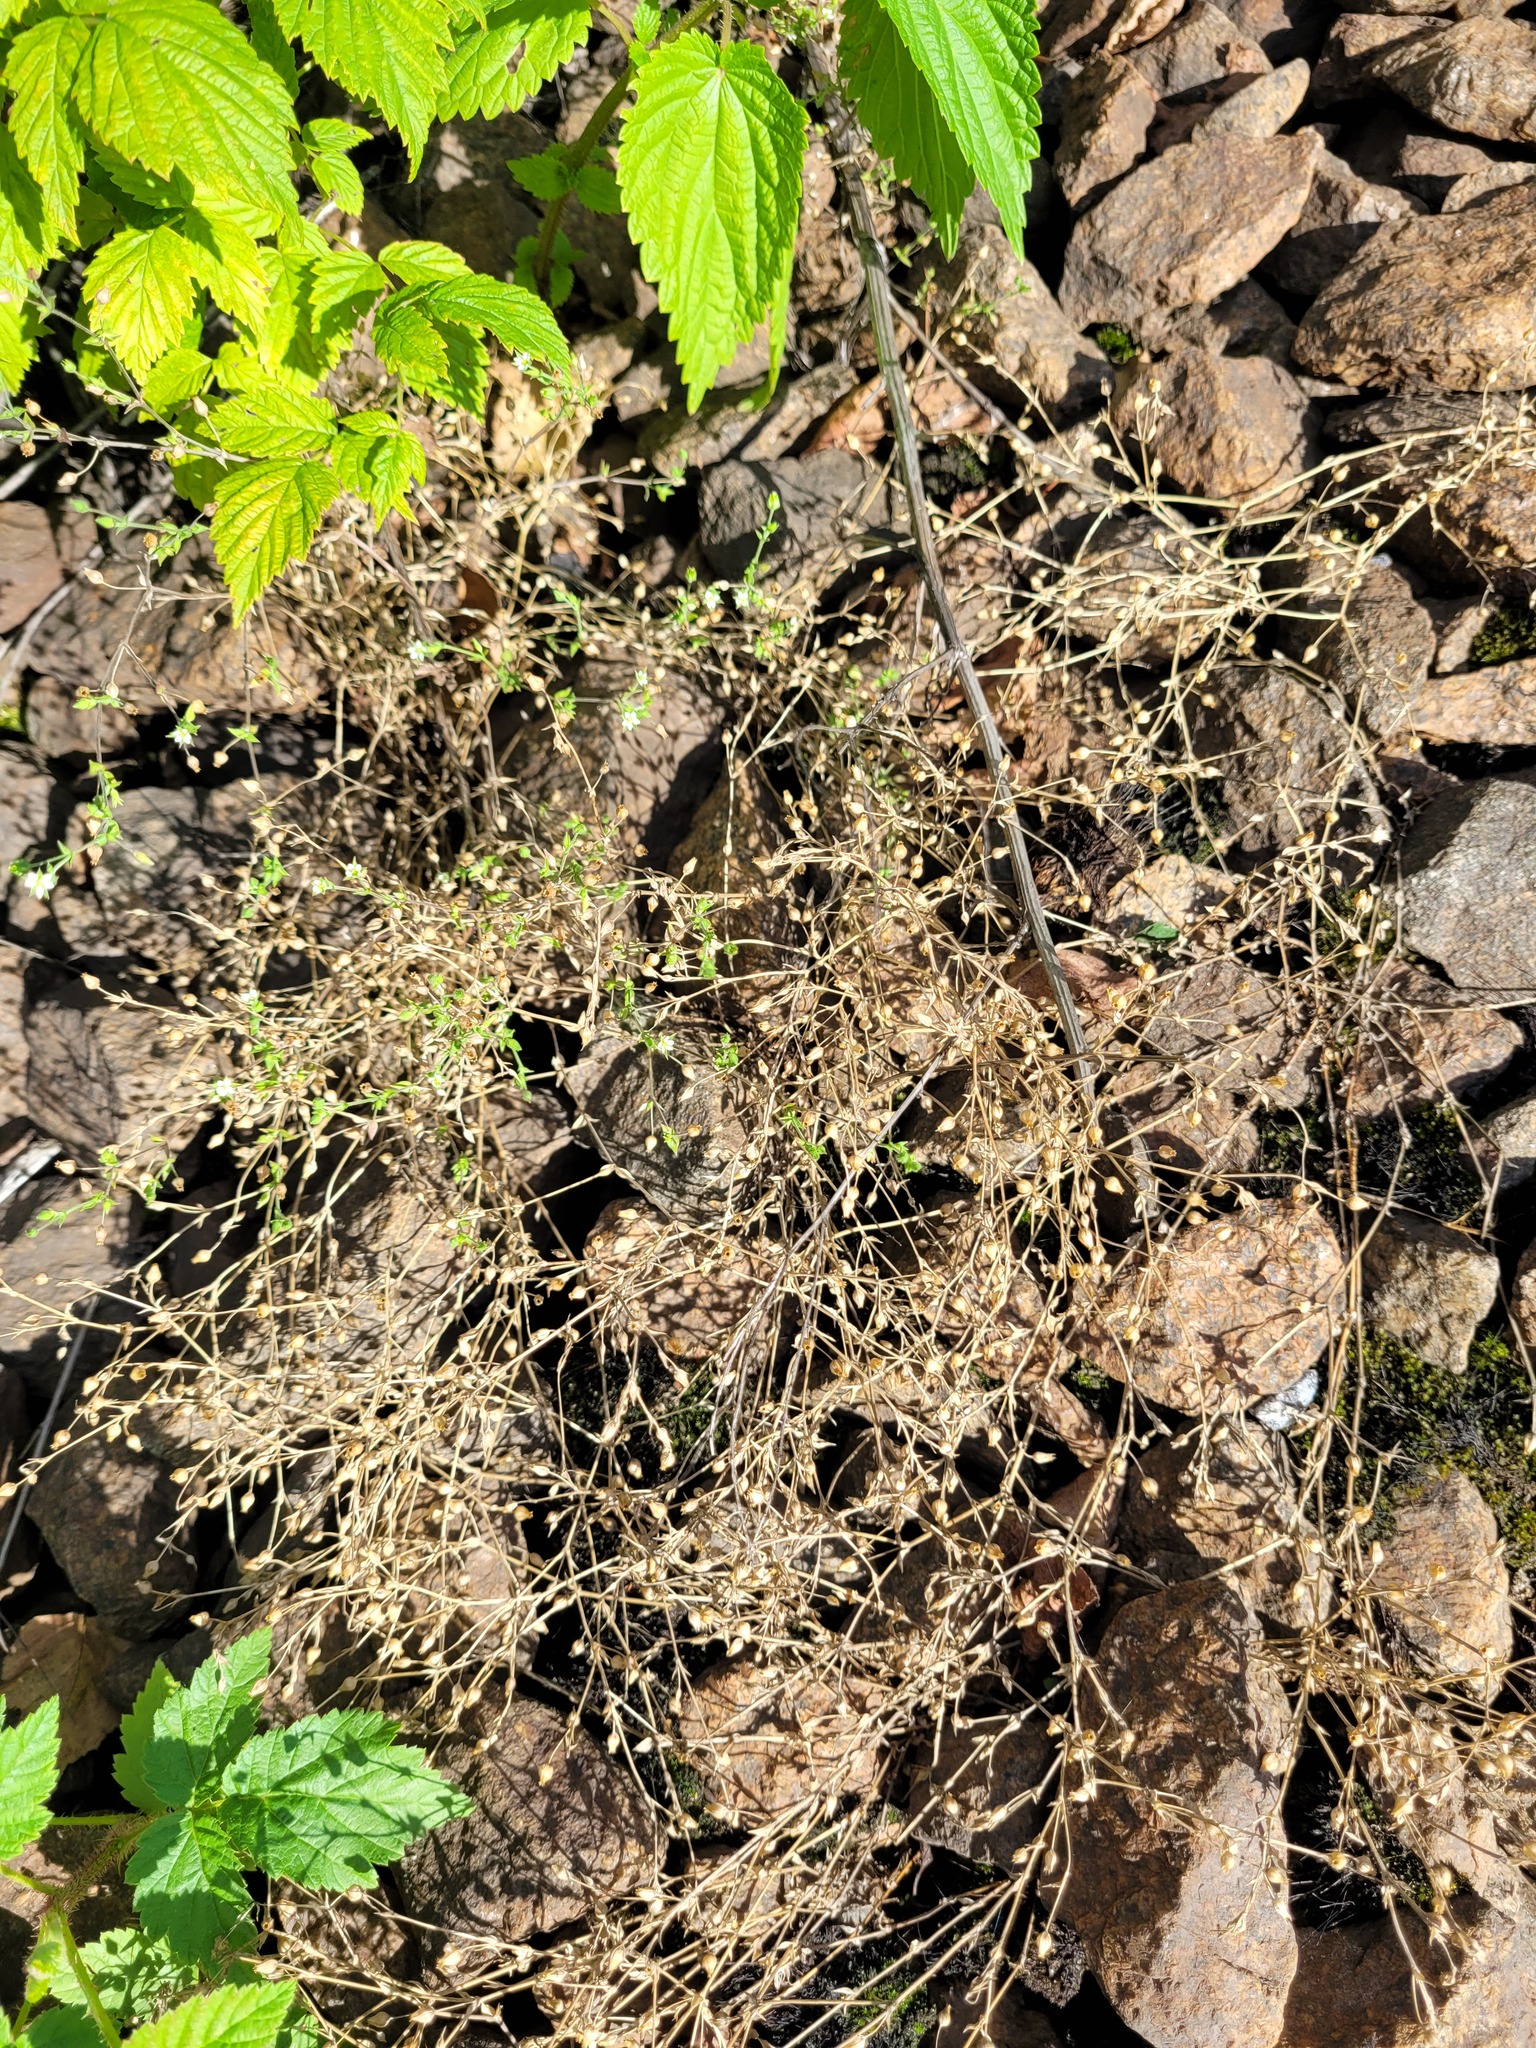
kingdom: Plantae
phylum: Tracheophyta
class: Magnoliopsida
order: Caryophyllales
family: Caryophyllaceae
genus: Arenaria
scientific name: Arenaria serpyllifolia
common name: Thyme-leaved sandwort
